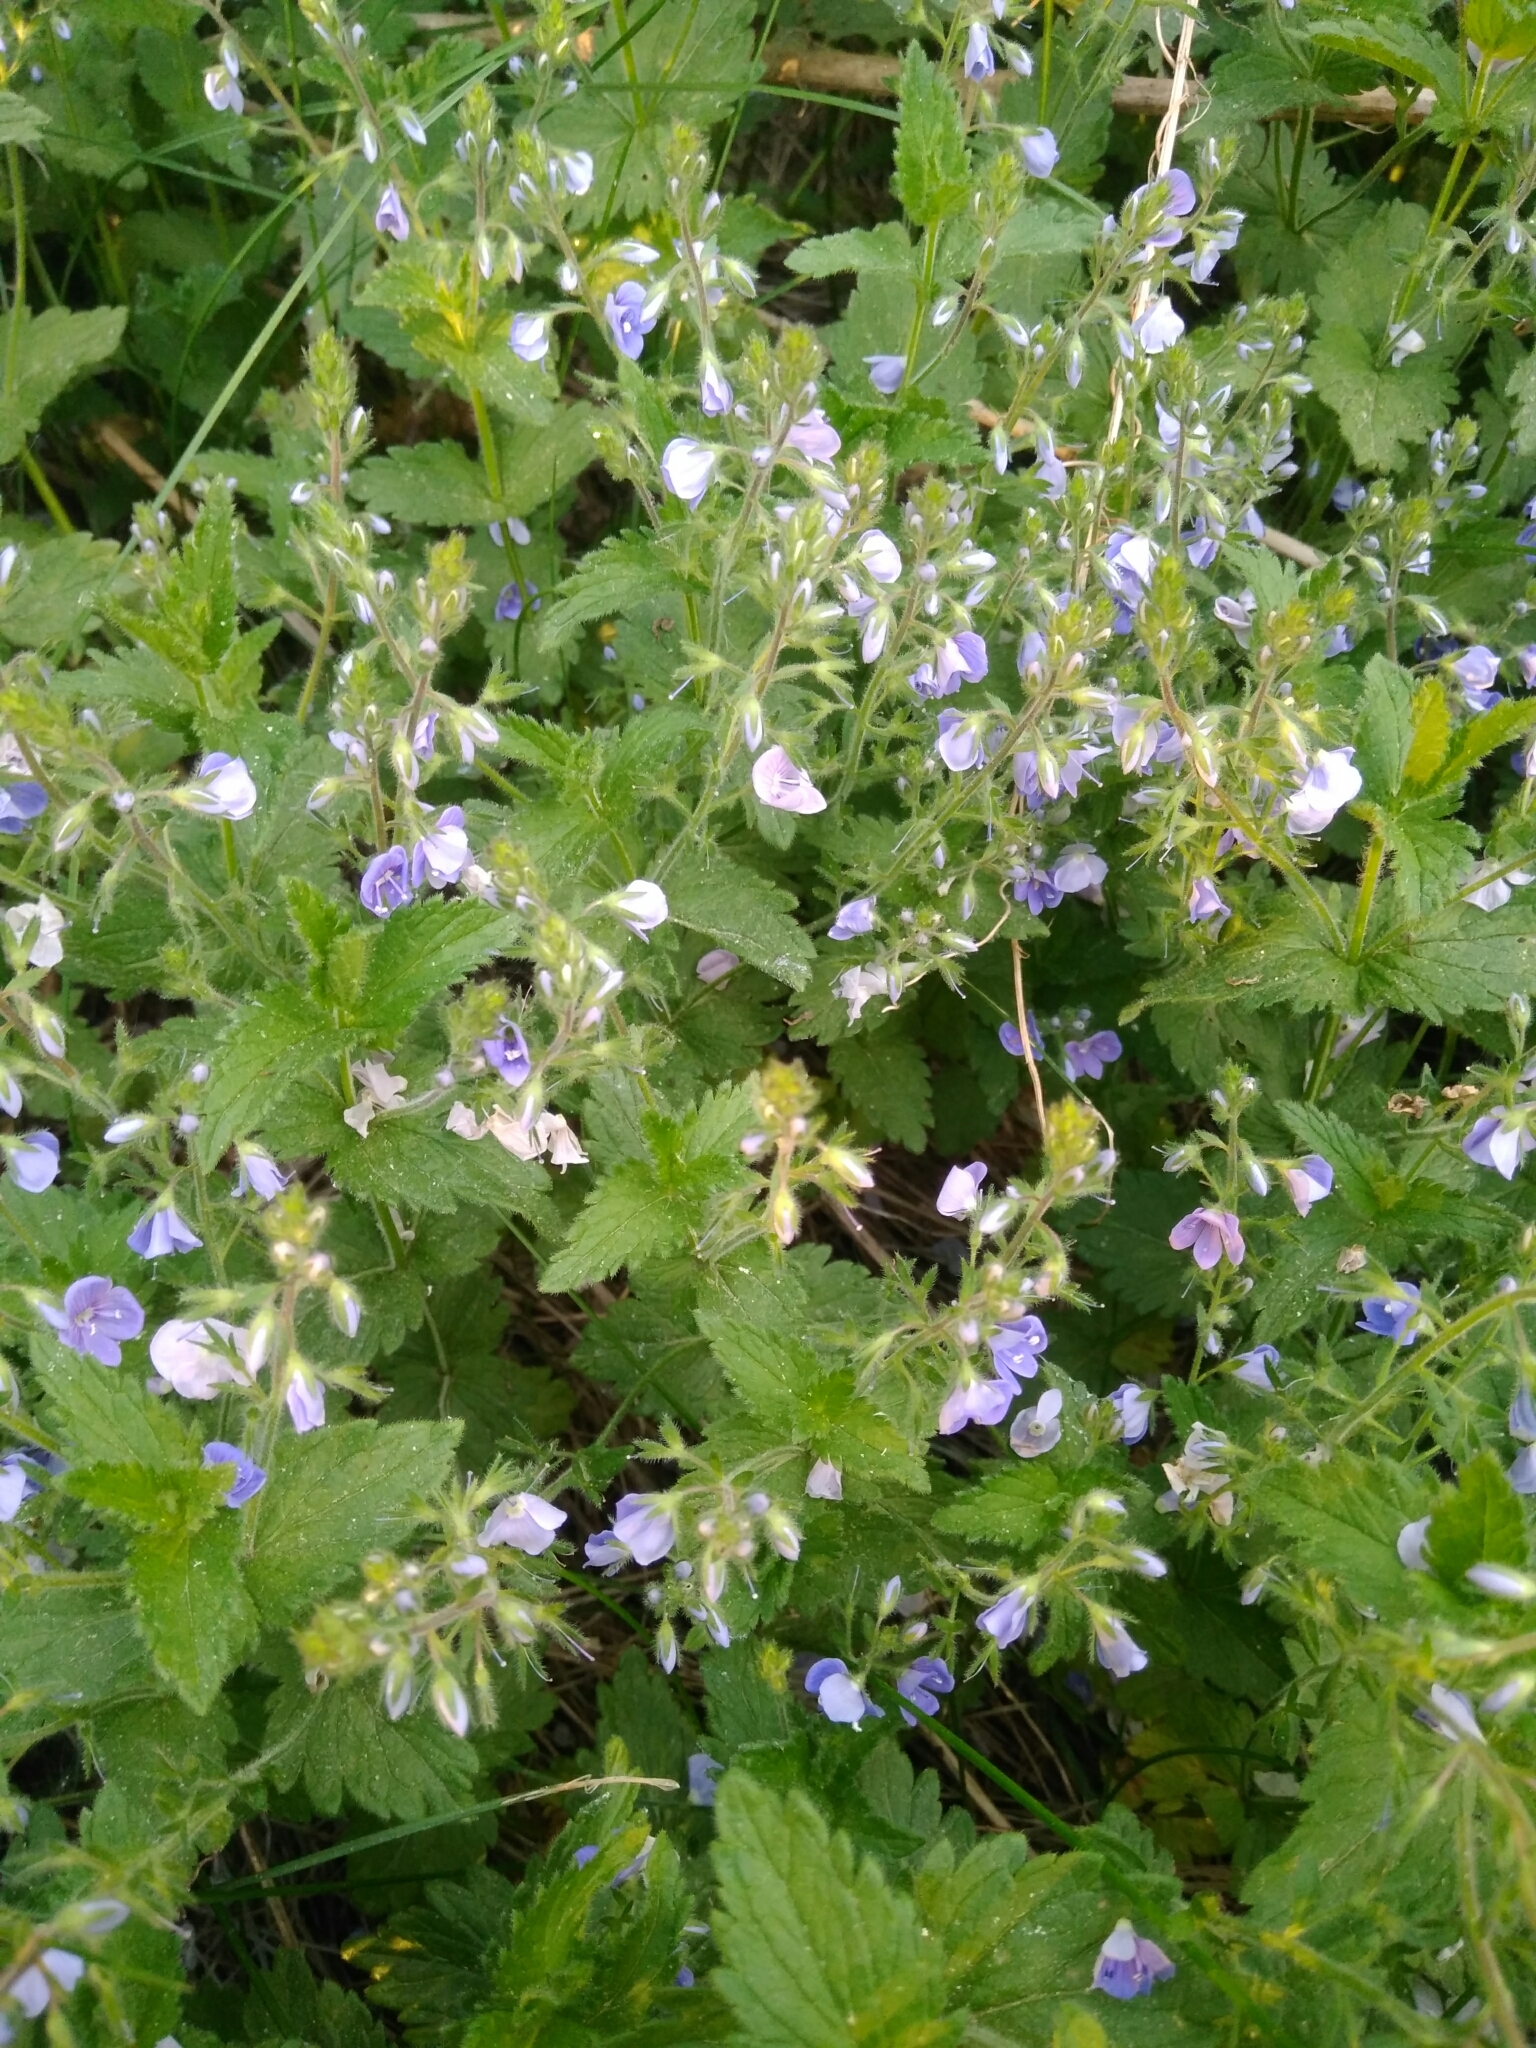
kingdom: Plantae
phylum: Tracheophyta
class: Magnoliopsida
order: Lamiales
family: Plantaginaceae
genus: Veronica
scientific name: Veronica chamaedrys
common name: Germander speedwell
